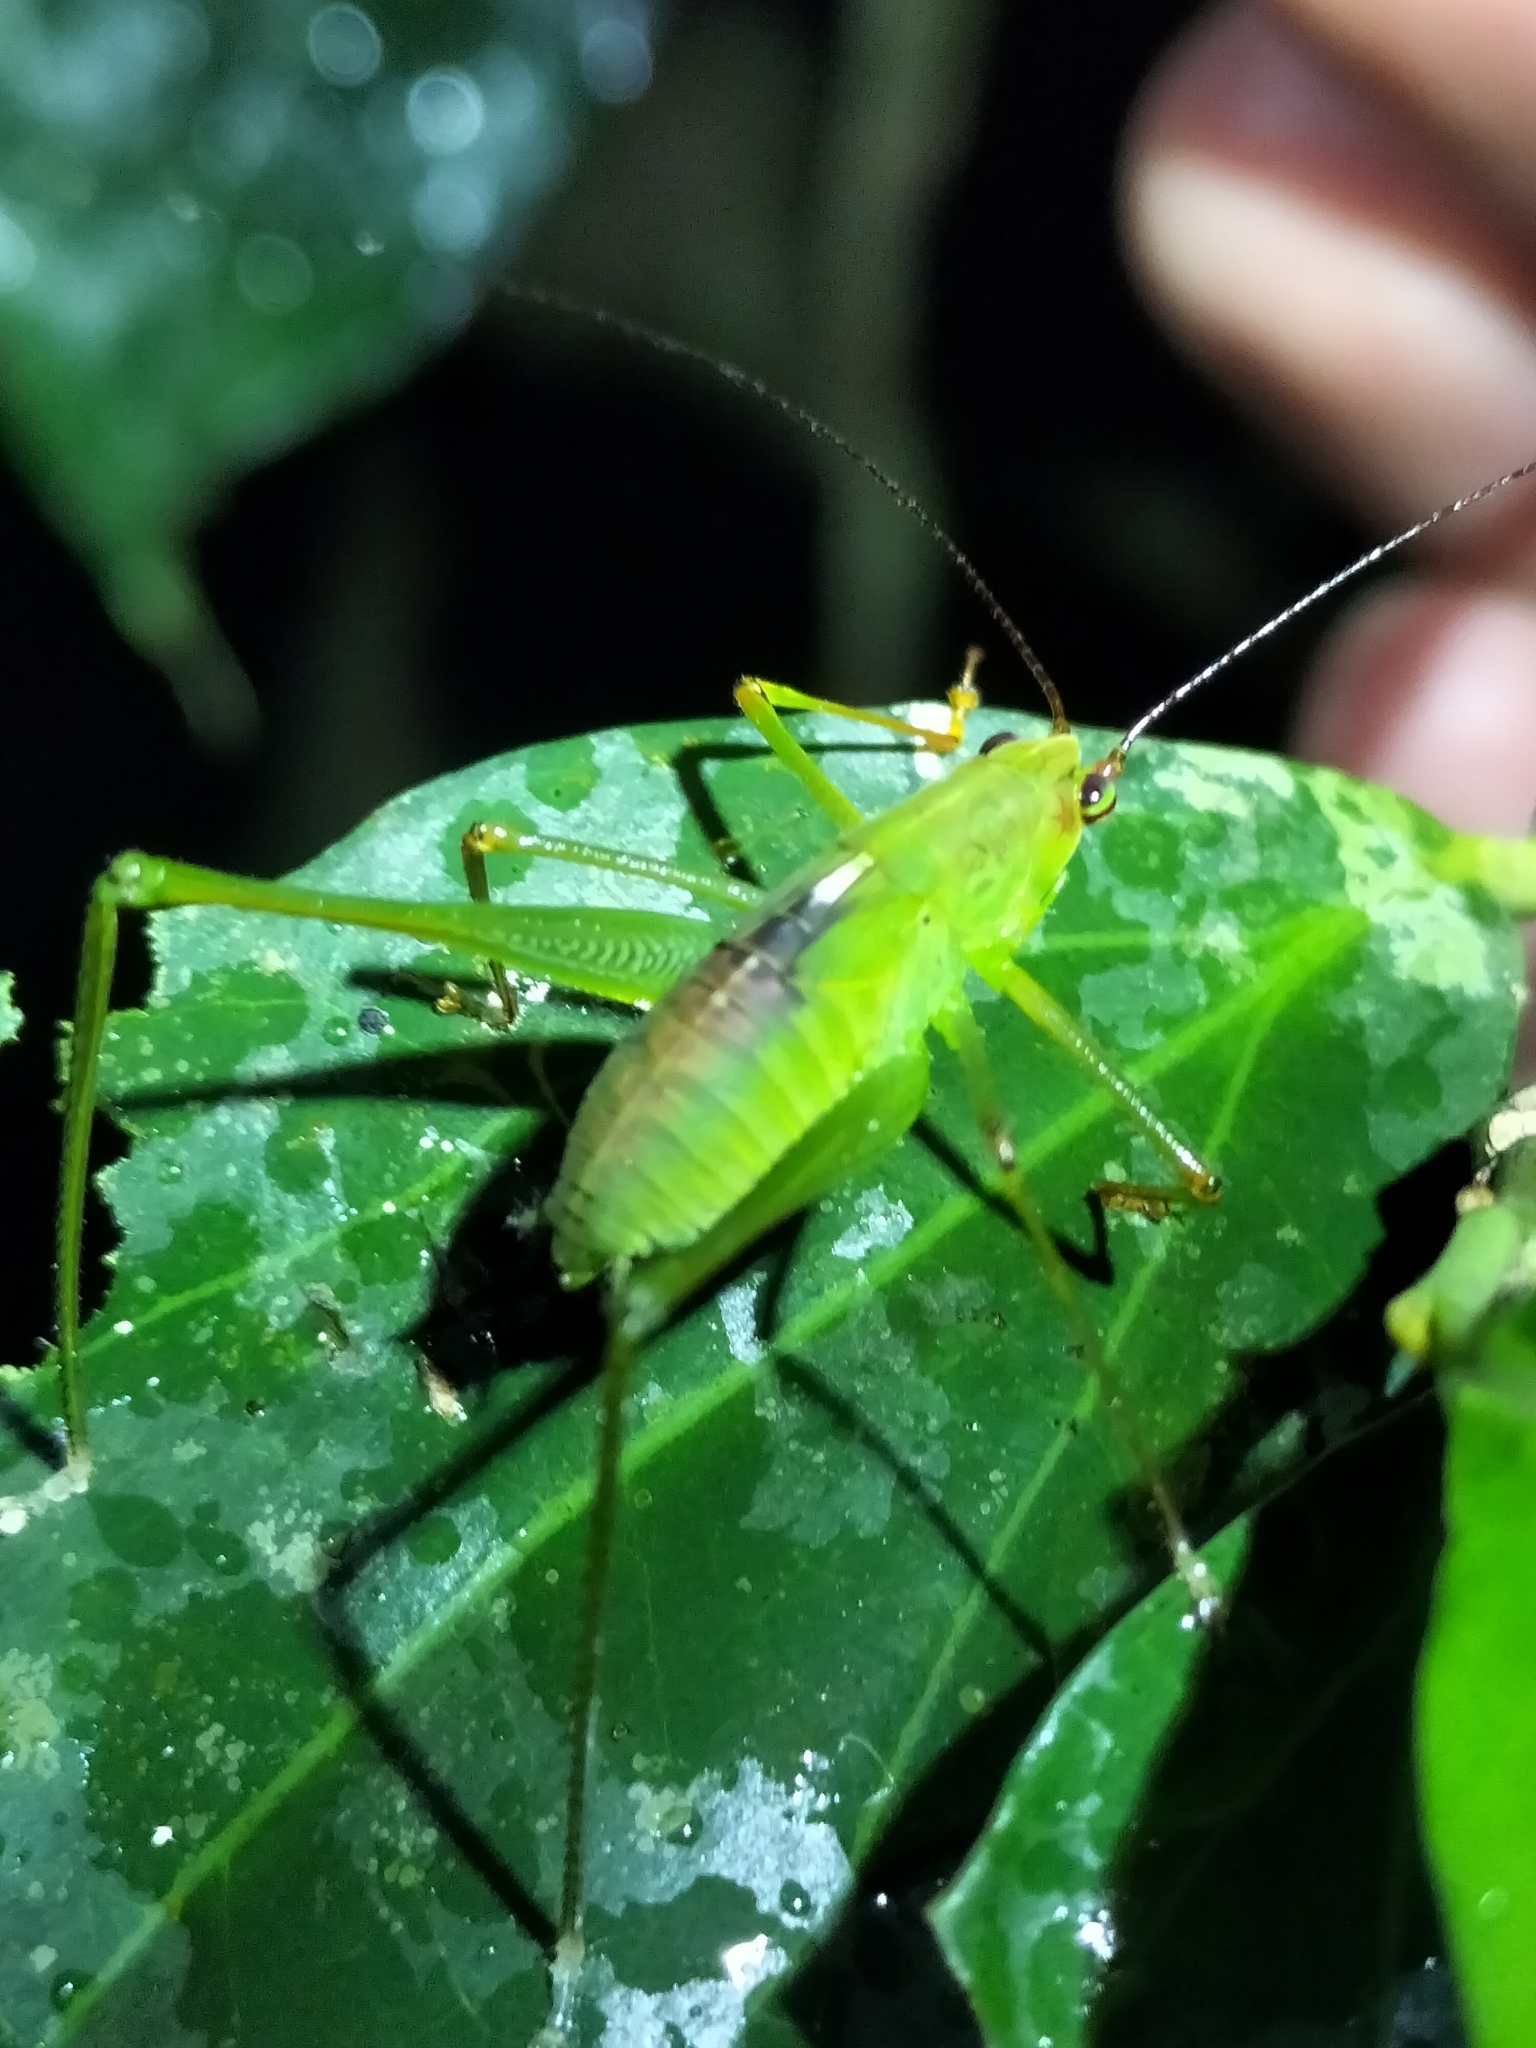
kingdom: Animalia
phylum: Arthropoda
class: Insecta
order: Orthoptera
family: Tettigoniidae
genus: Leucopodoptera
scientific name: Leucopodoptera eumundii
